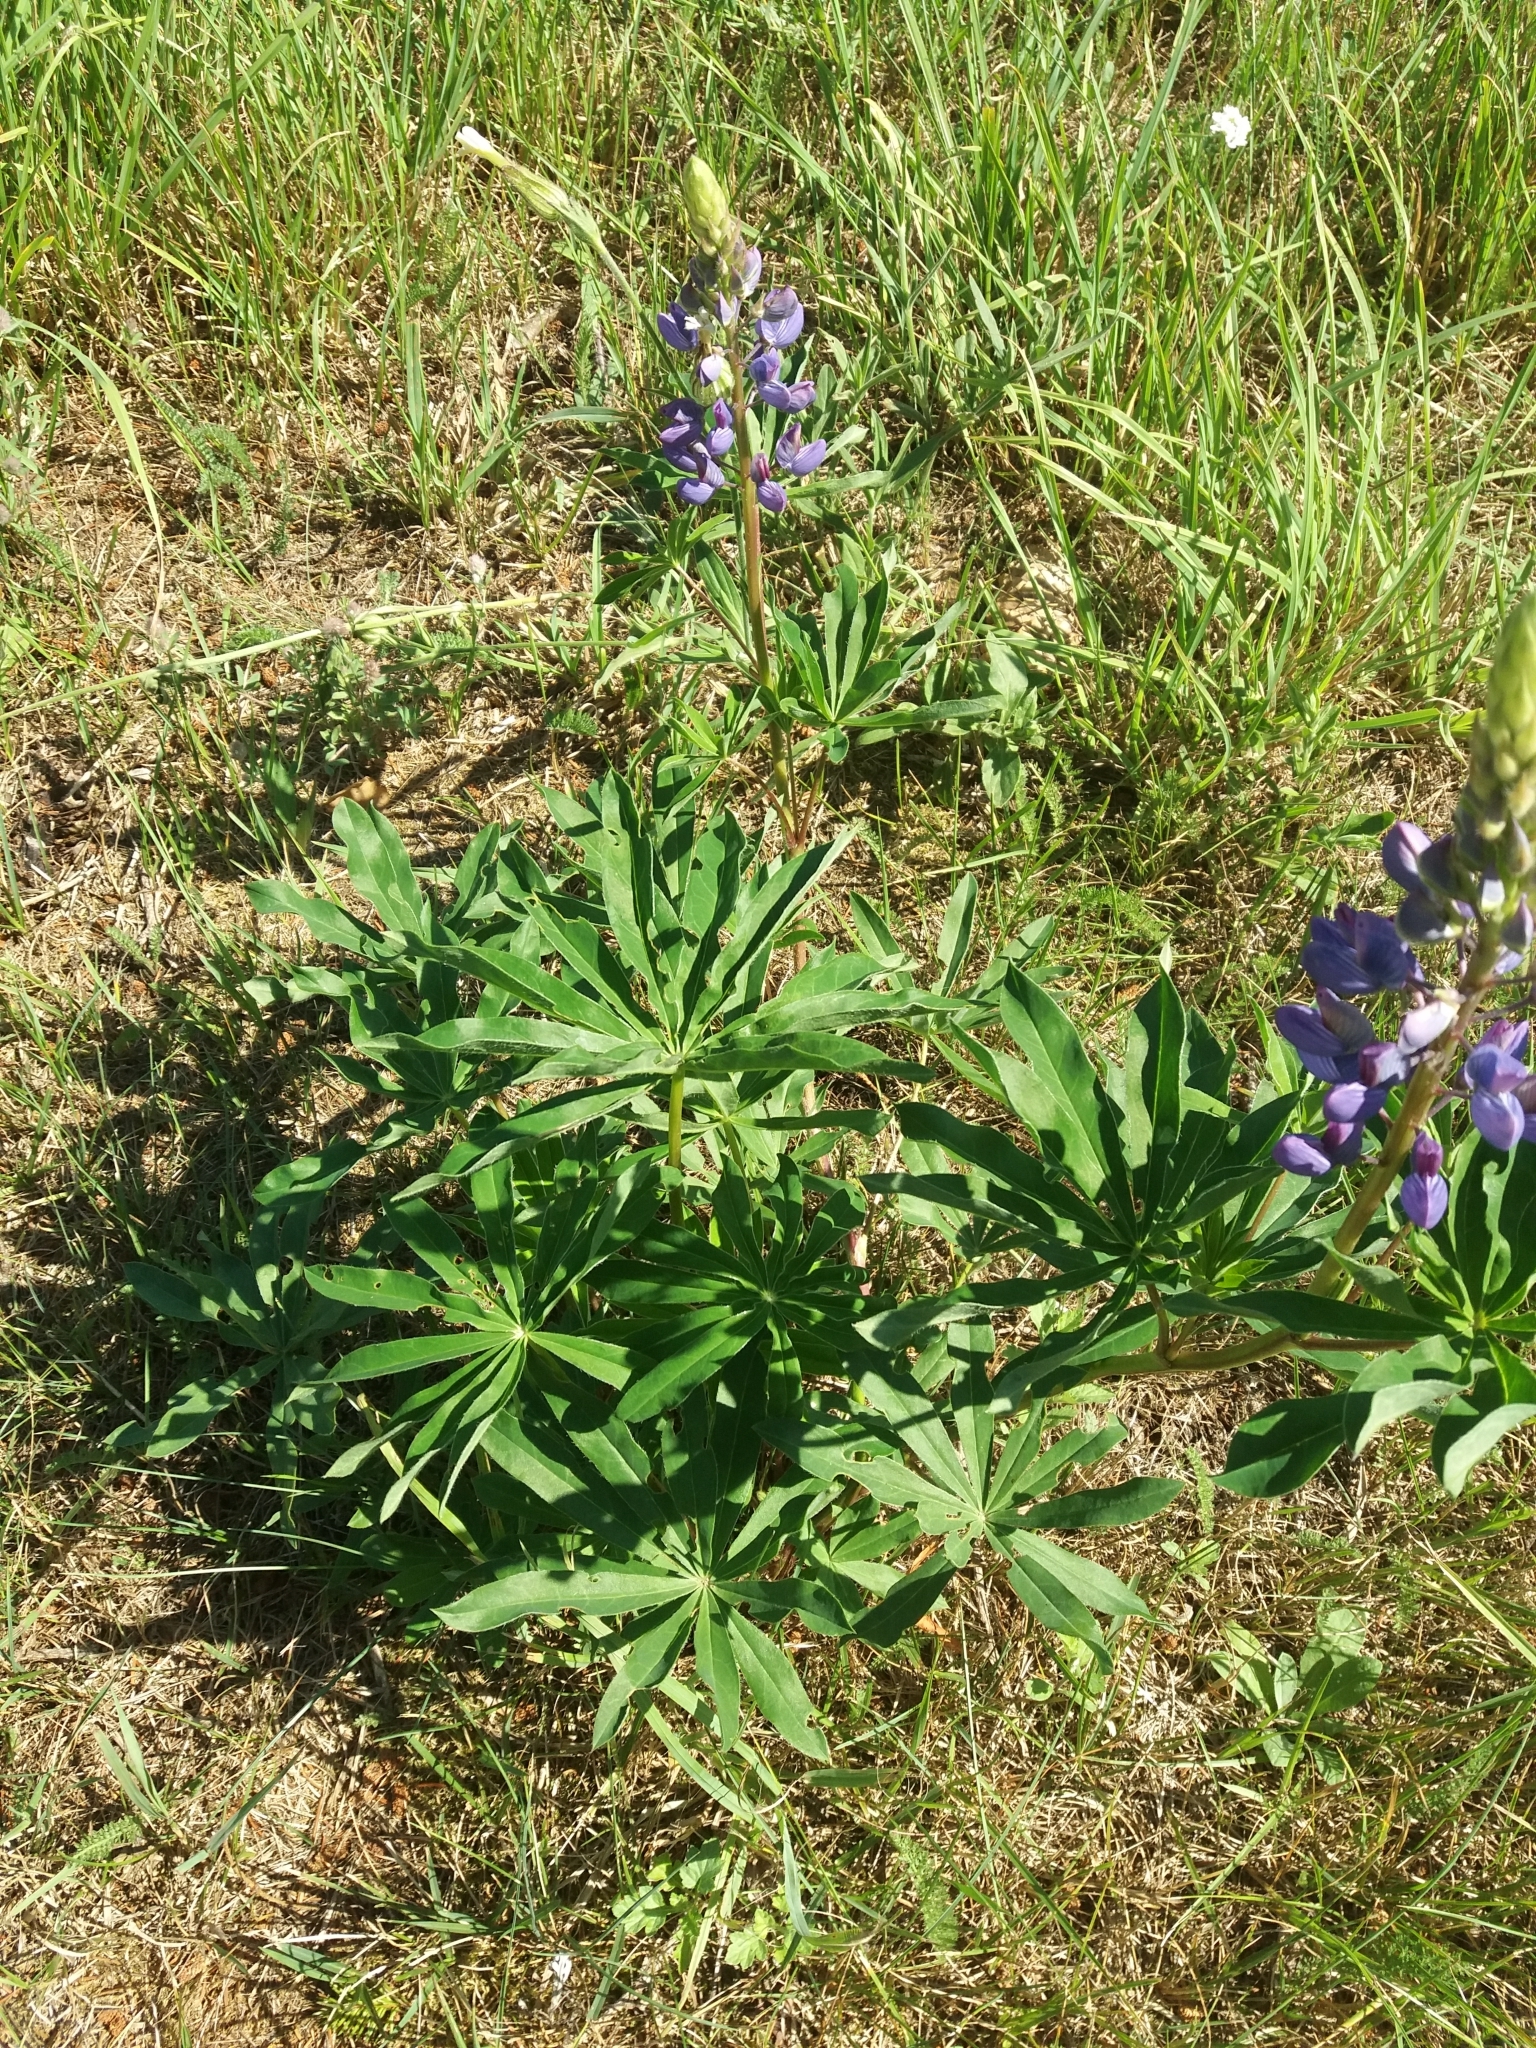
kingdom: Plantae
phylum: Tracheophyta
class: Magnoliopsida
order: Fabales
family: Fabaceae
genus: Lupinus
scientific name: Lupinus polyphyllus
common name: Garden lupin
